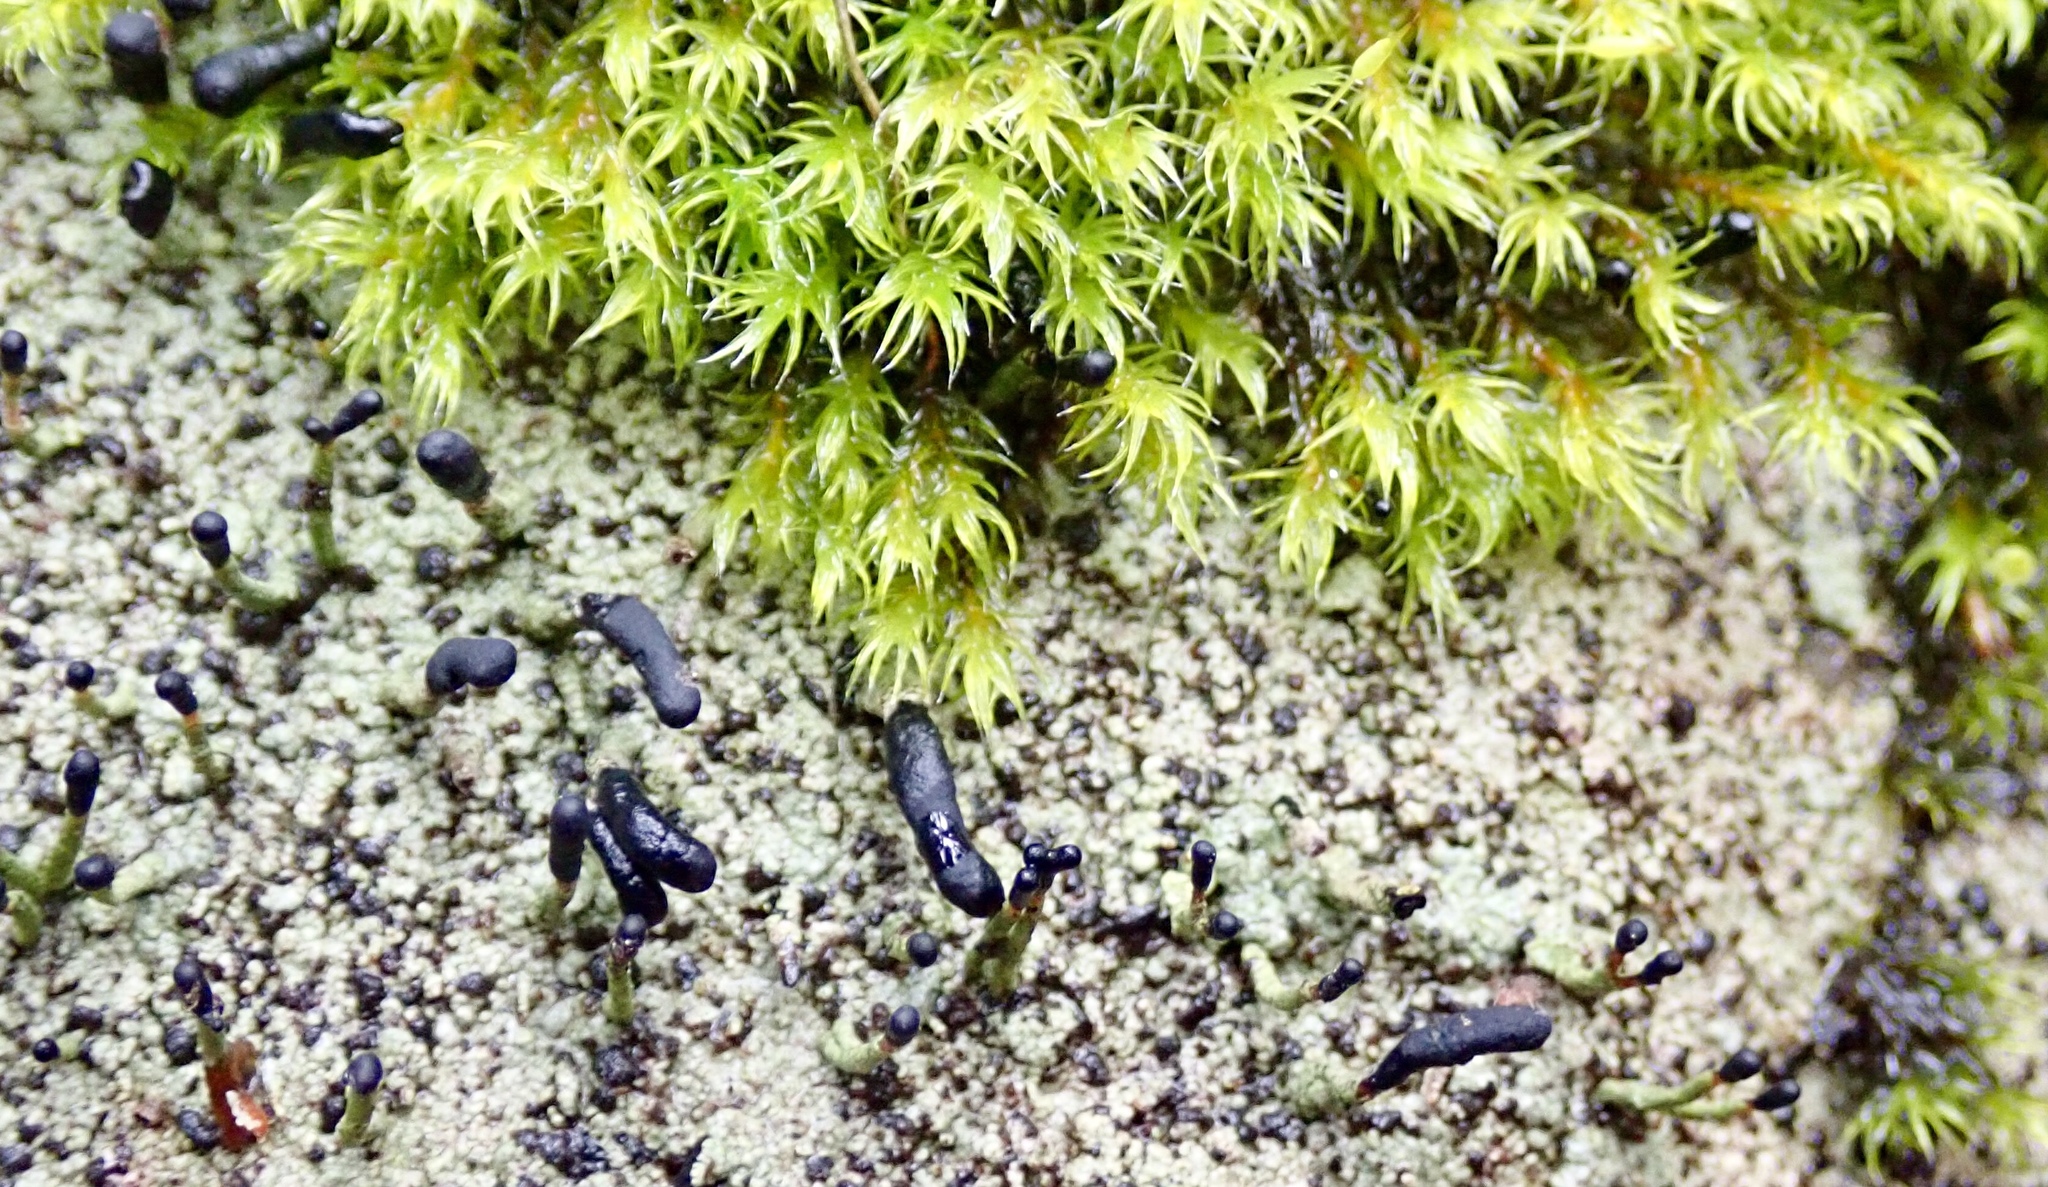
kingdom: Fungi
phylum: Ascomycota
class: Lecanoromycetes
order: Lecanorales
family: Cladoniaceae
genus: Pilophorus
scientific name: Pilophorus clavatus
